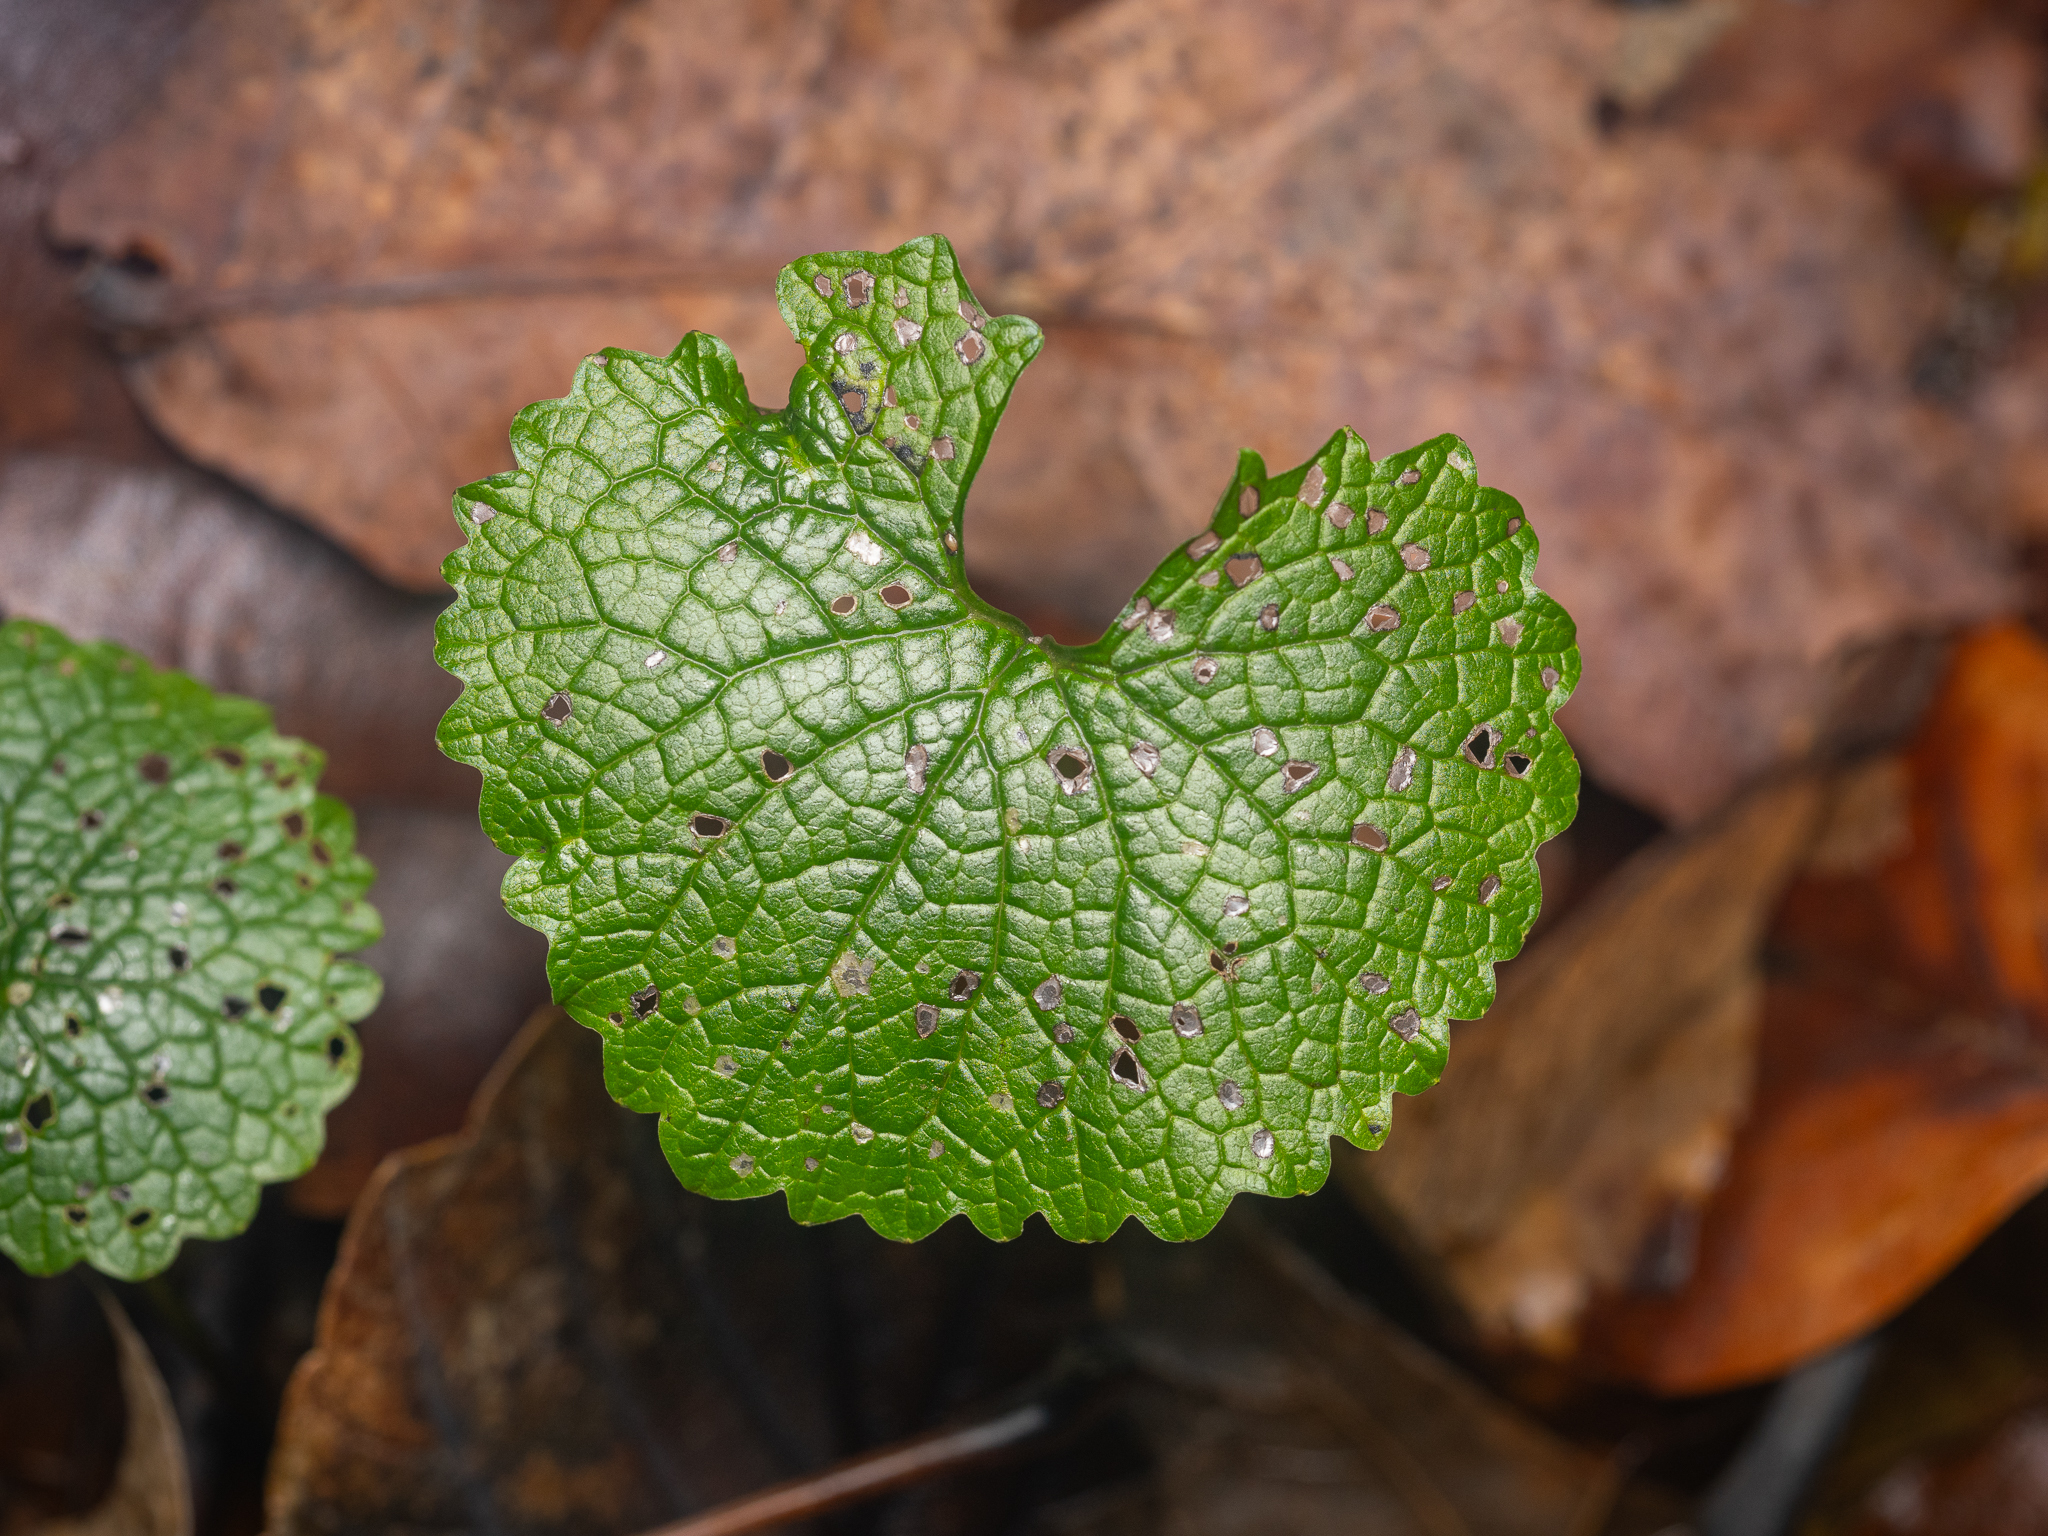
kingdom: Plantae
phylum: Tracheophyta
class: Magnoliopsida
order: Brassicales
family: Brassicaceae
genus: Alliaria
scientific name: Alliaria petiolata
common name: Garlic mustard
